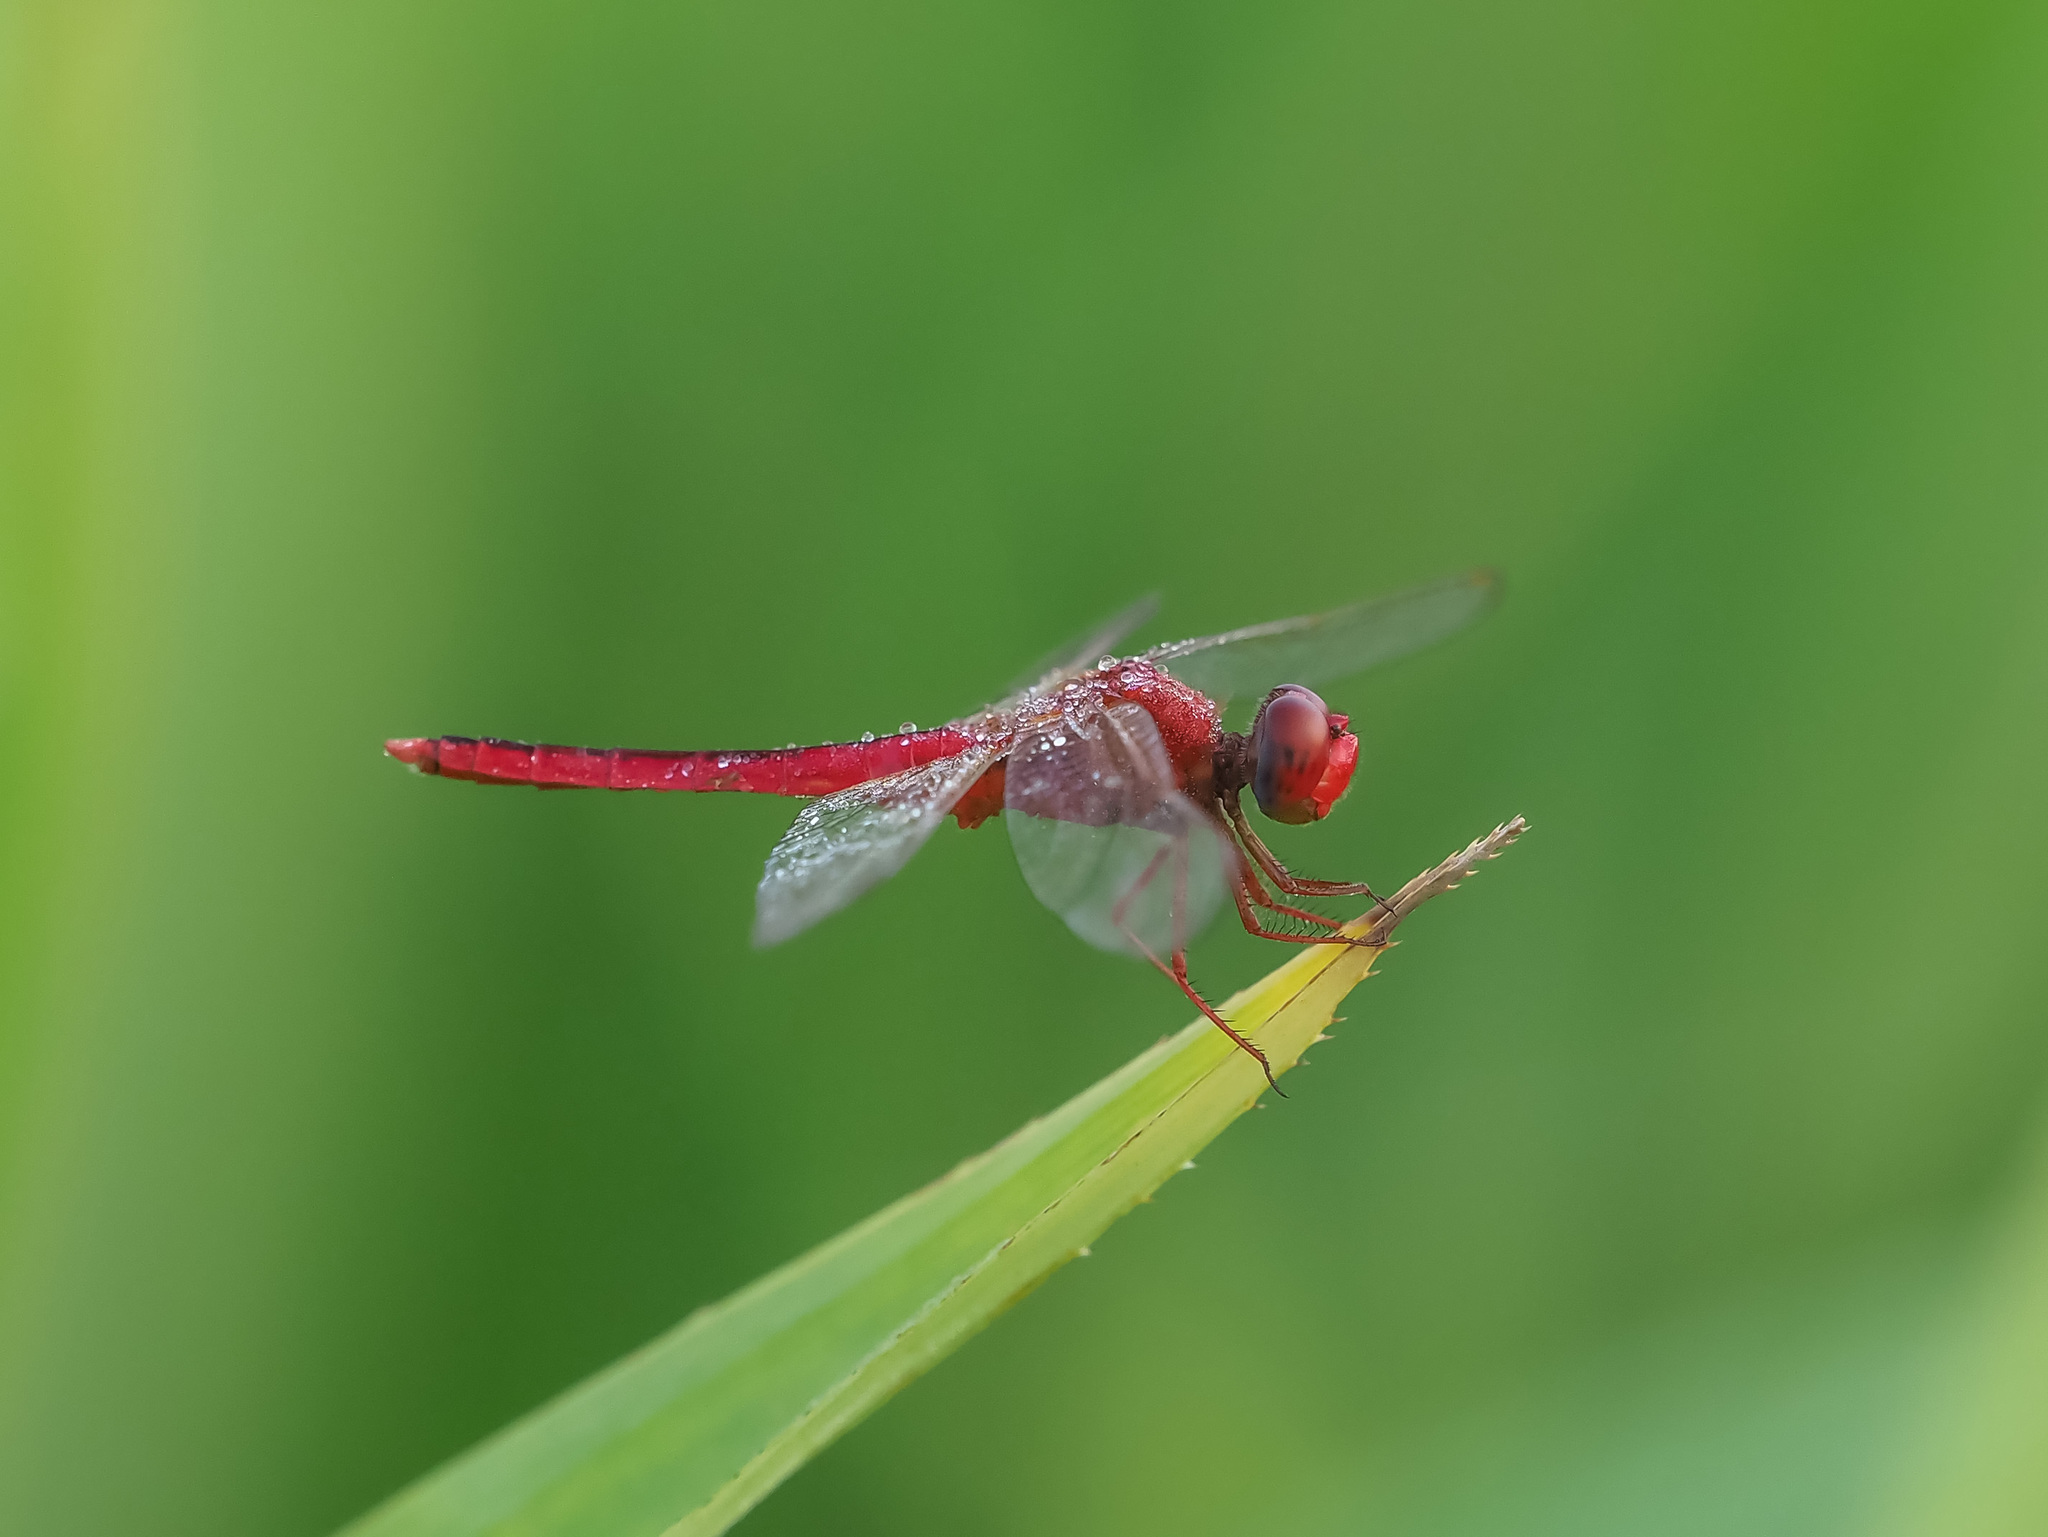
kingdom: Animalia
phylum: Arthropoda
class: Insecta
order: Odonata
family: Libellulidae
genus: Crocothemis
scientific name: Crocothemis servilia
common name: Scarlet skimmer
